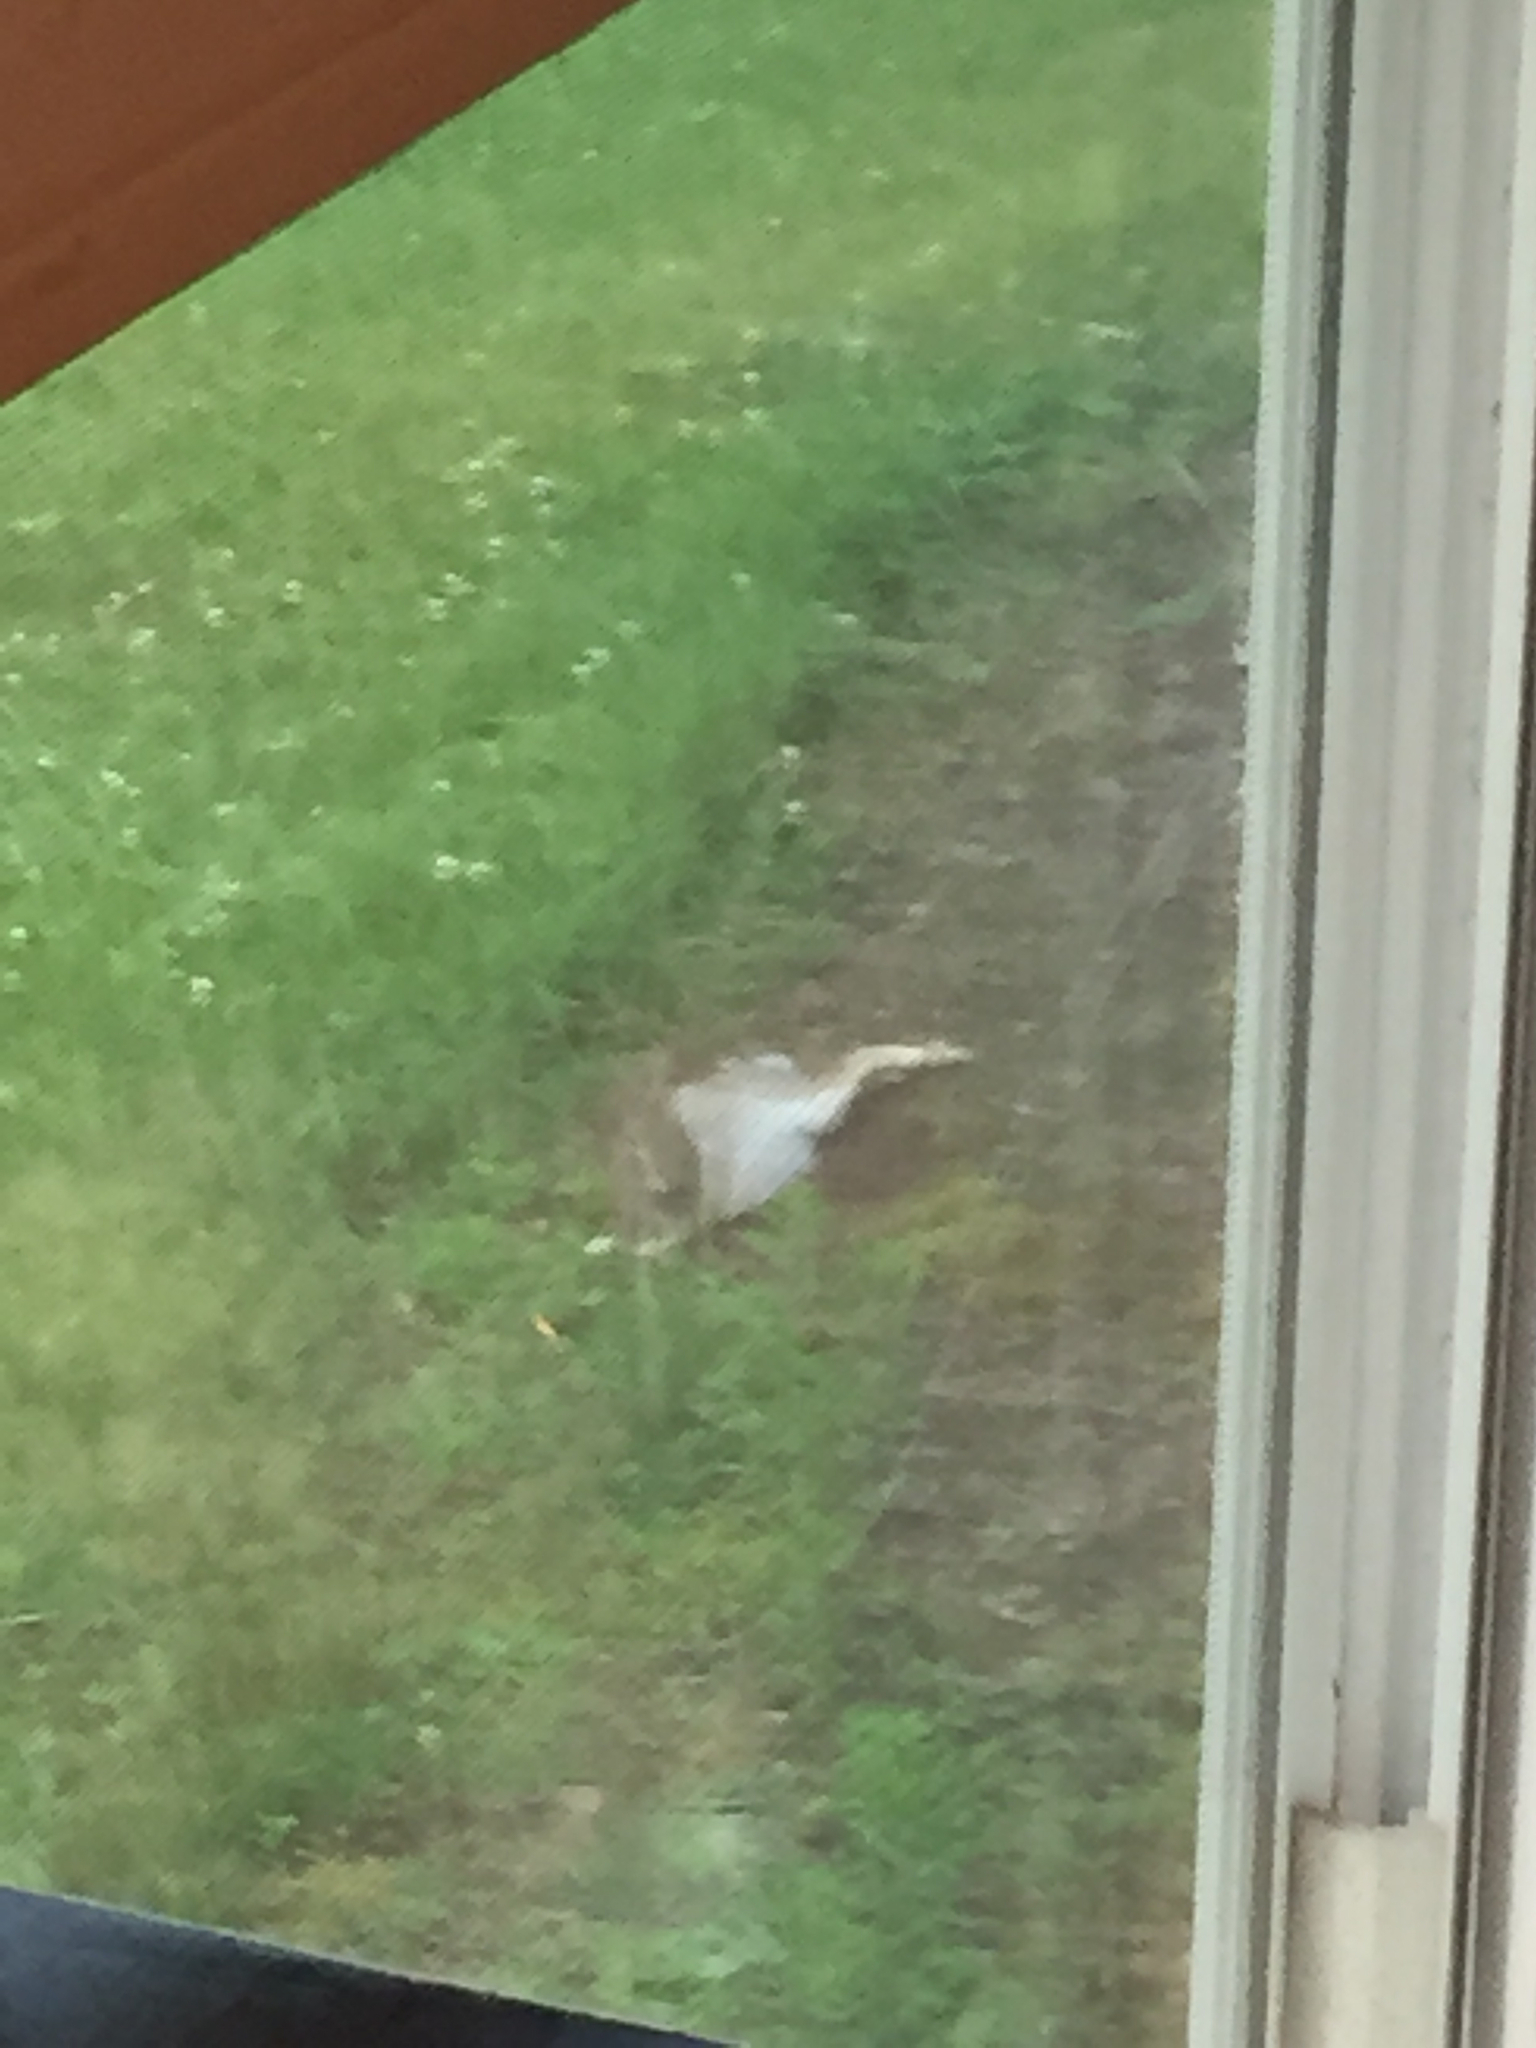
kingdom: Animalia
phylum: Chordata
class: Mammalia
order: Lagomorpha
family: Leporidae
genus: Sylvilagus
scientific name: Sylvilagus floridanus
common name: Eastern cottontail
